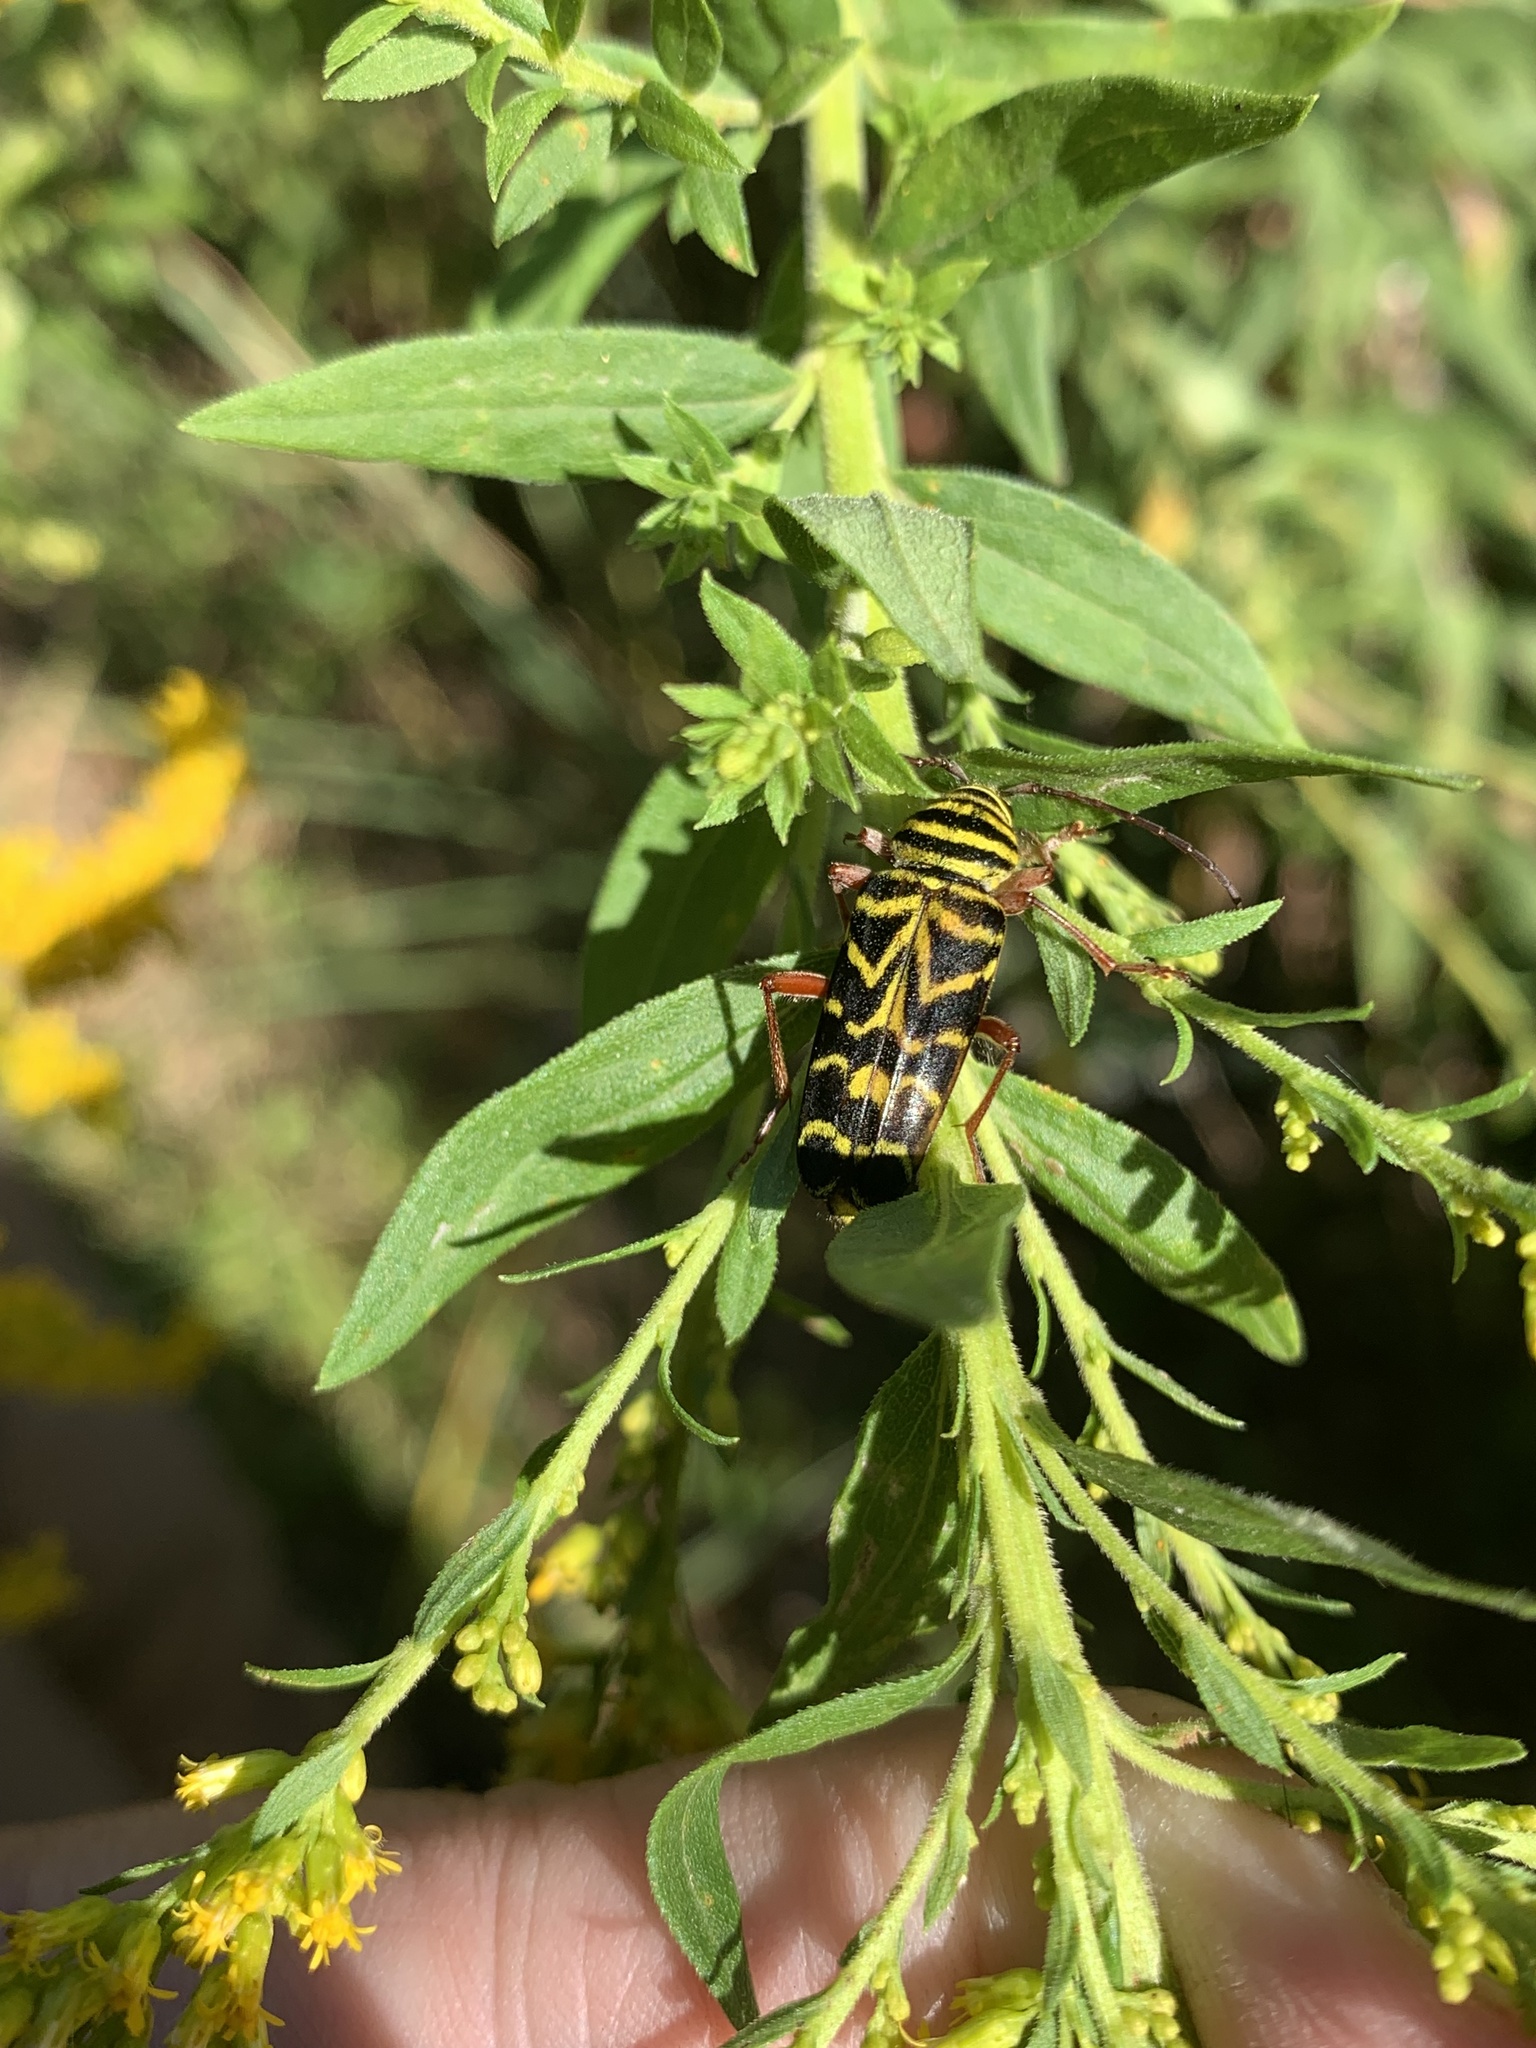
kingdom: Animalia
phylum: Arthropoda
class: Insecta
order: Coleoptera
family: Cerambycidae
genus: Megacyllene
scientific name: Megacyllene robiniae
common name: Locust borer
